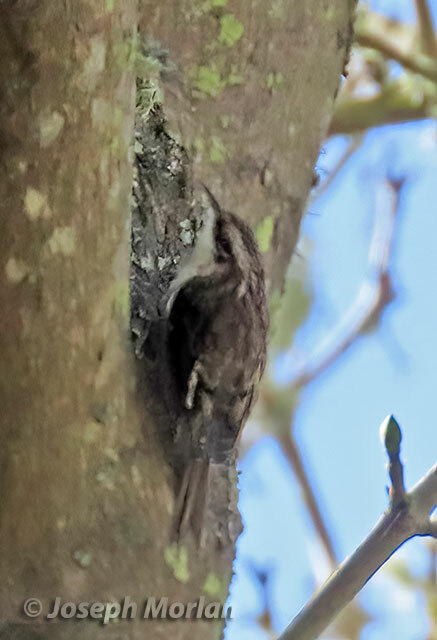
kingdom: Animalia
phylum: Chordata
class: Aves
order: Passeriformes
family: Certhiidae
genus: Certhia
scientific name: Certhia americana
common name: Brown creeper
